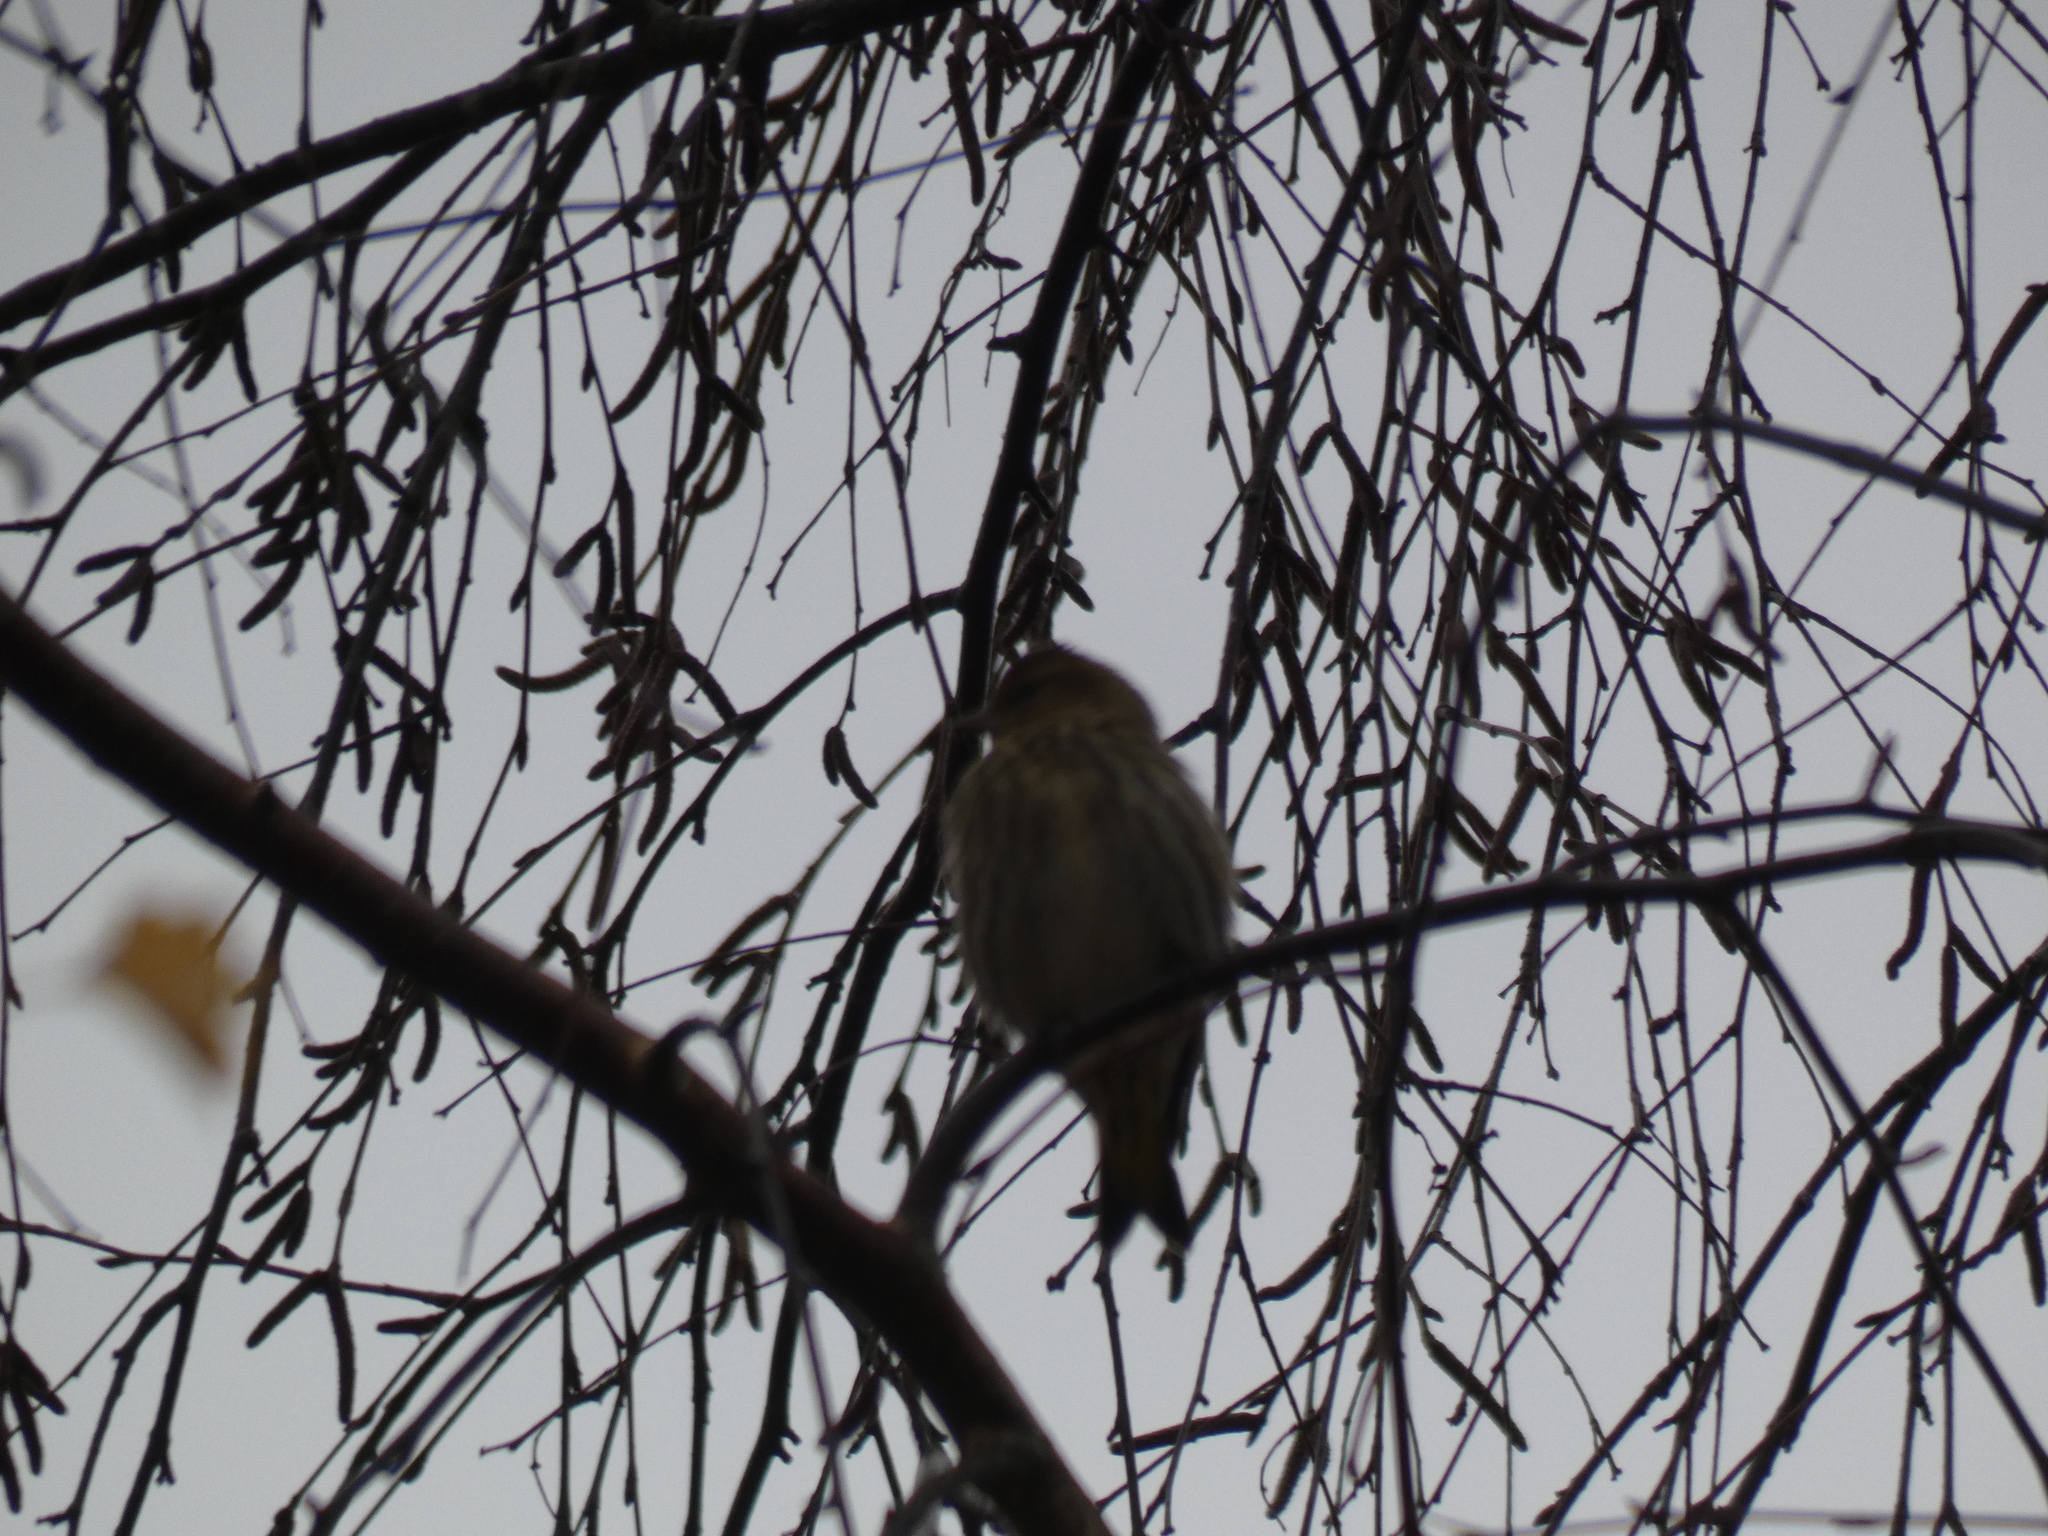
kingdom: Animalia
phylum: Chordata
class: Aves
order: Passeriformes
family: Fringillidae
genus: Spinus
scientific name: Spinus pinus
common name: Pine siskin
